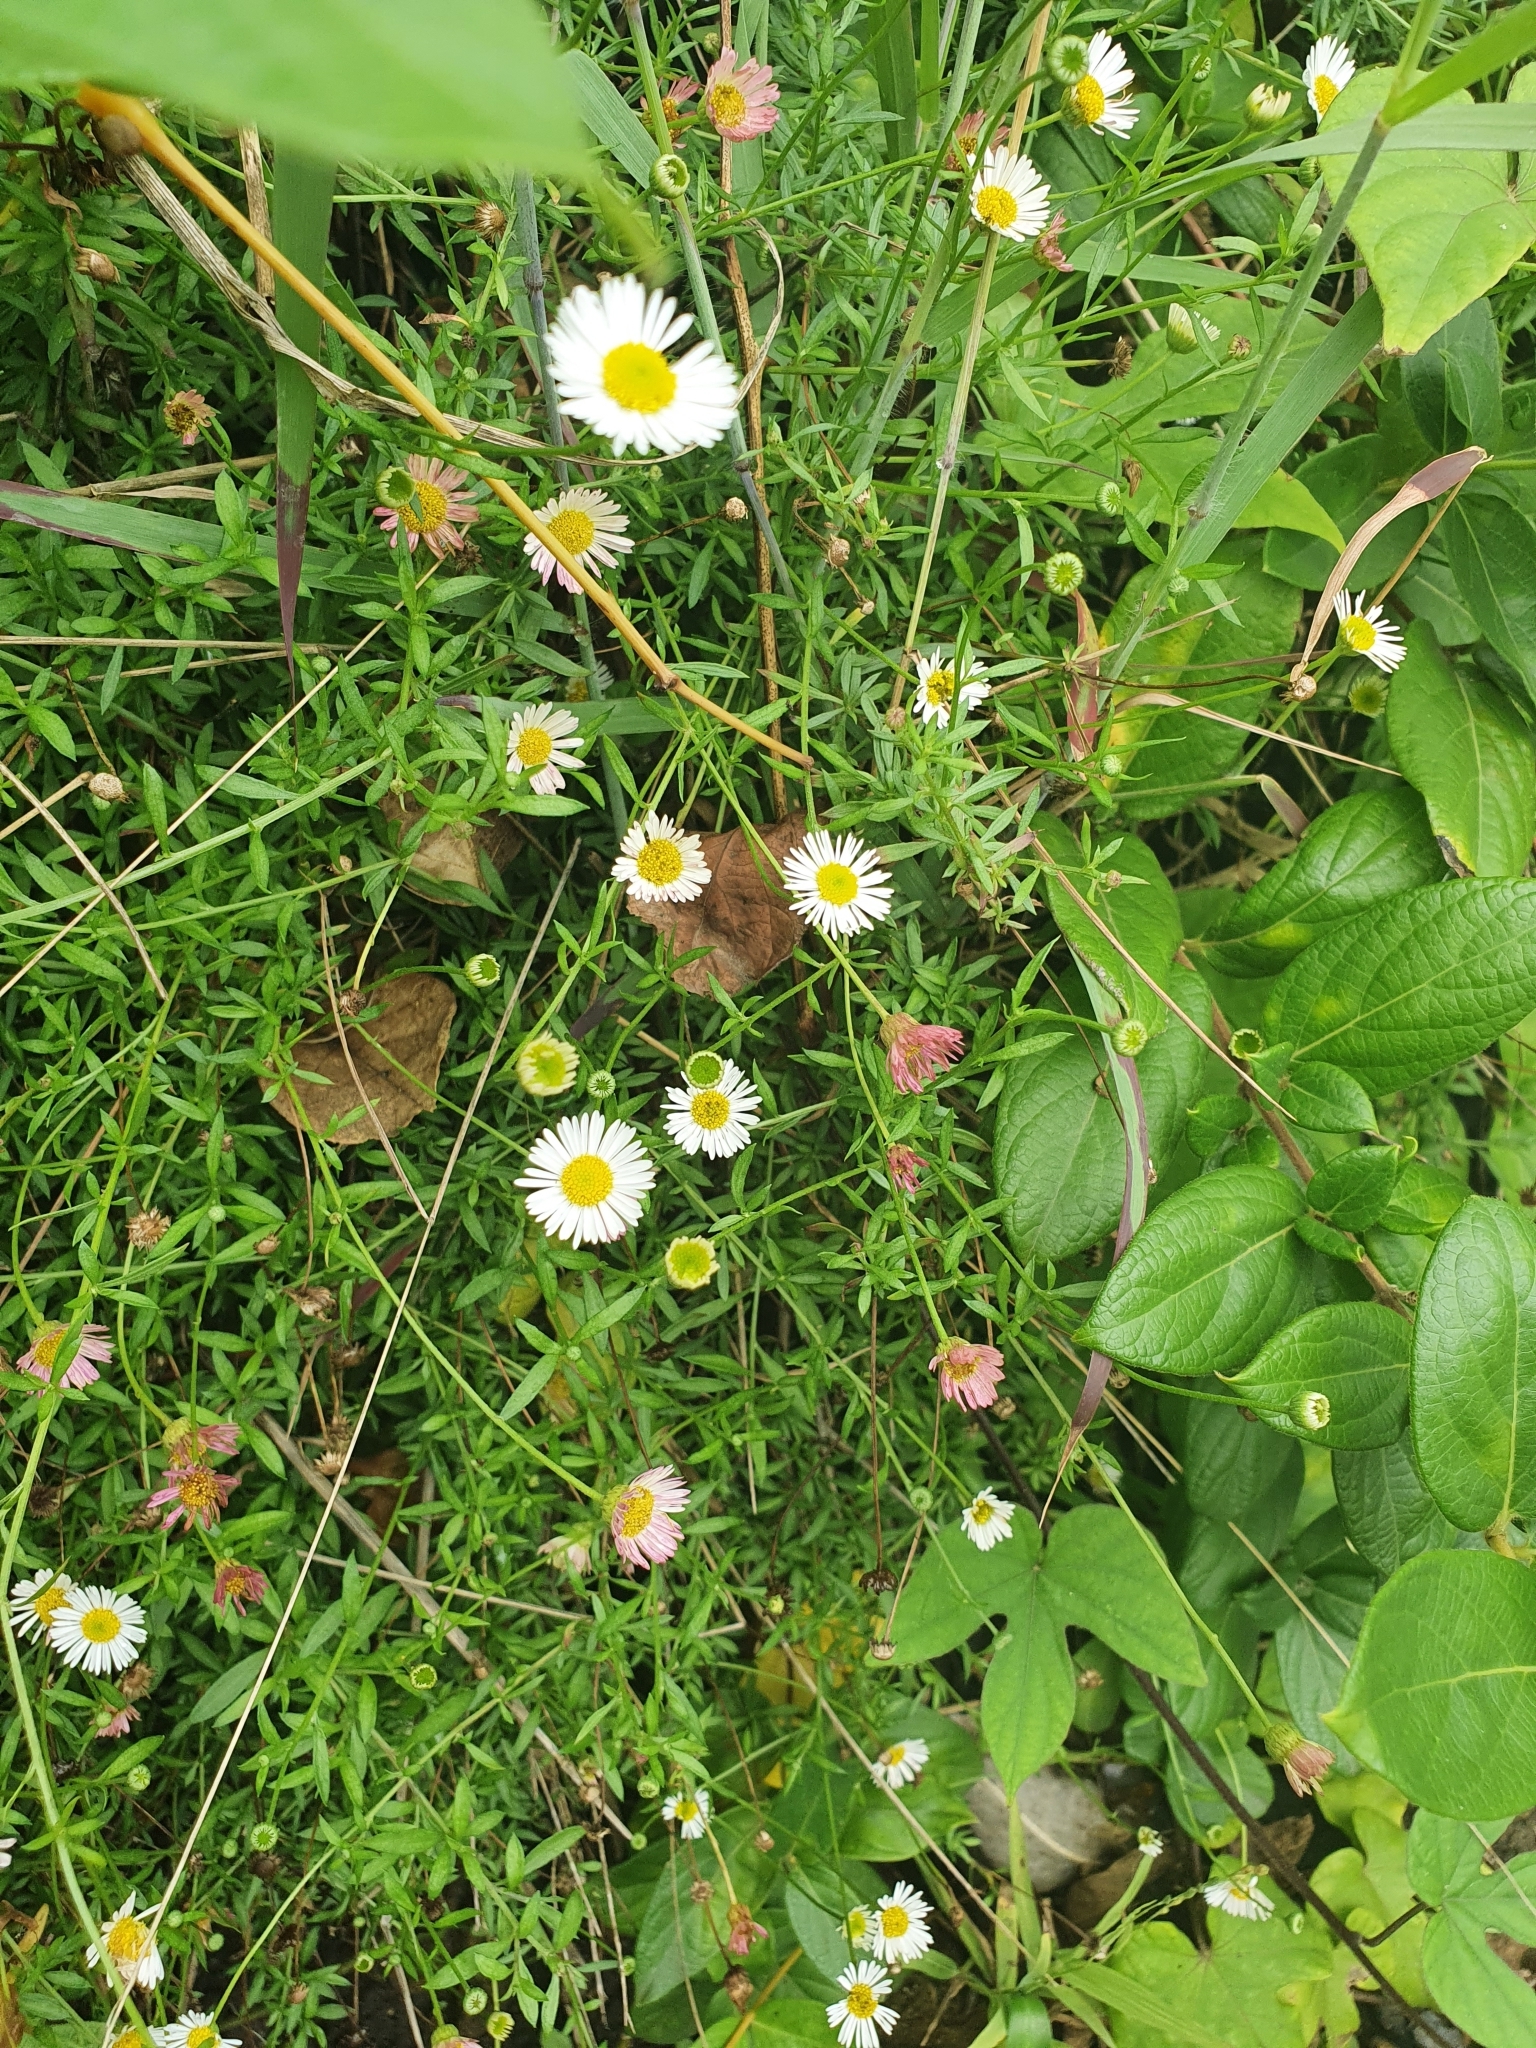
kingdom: Plantae
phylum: Tracheophyta
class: Magnoliopsida
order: Asterales
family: Asteraceae
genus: Erigeron
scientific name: Erigeron karvinskianus
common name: Mexican fleabane
